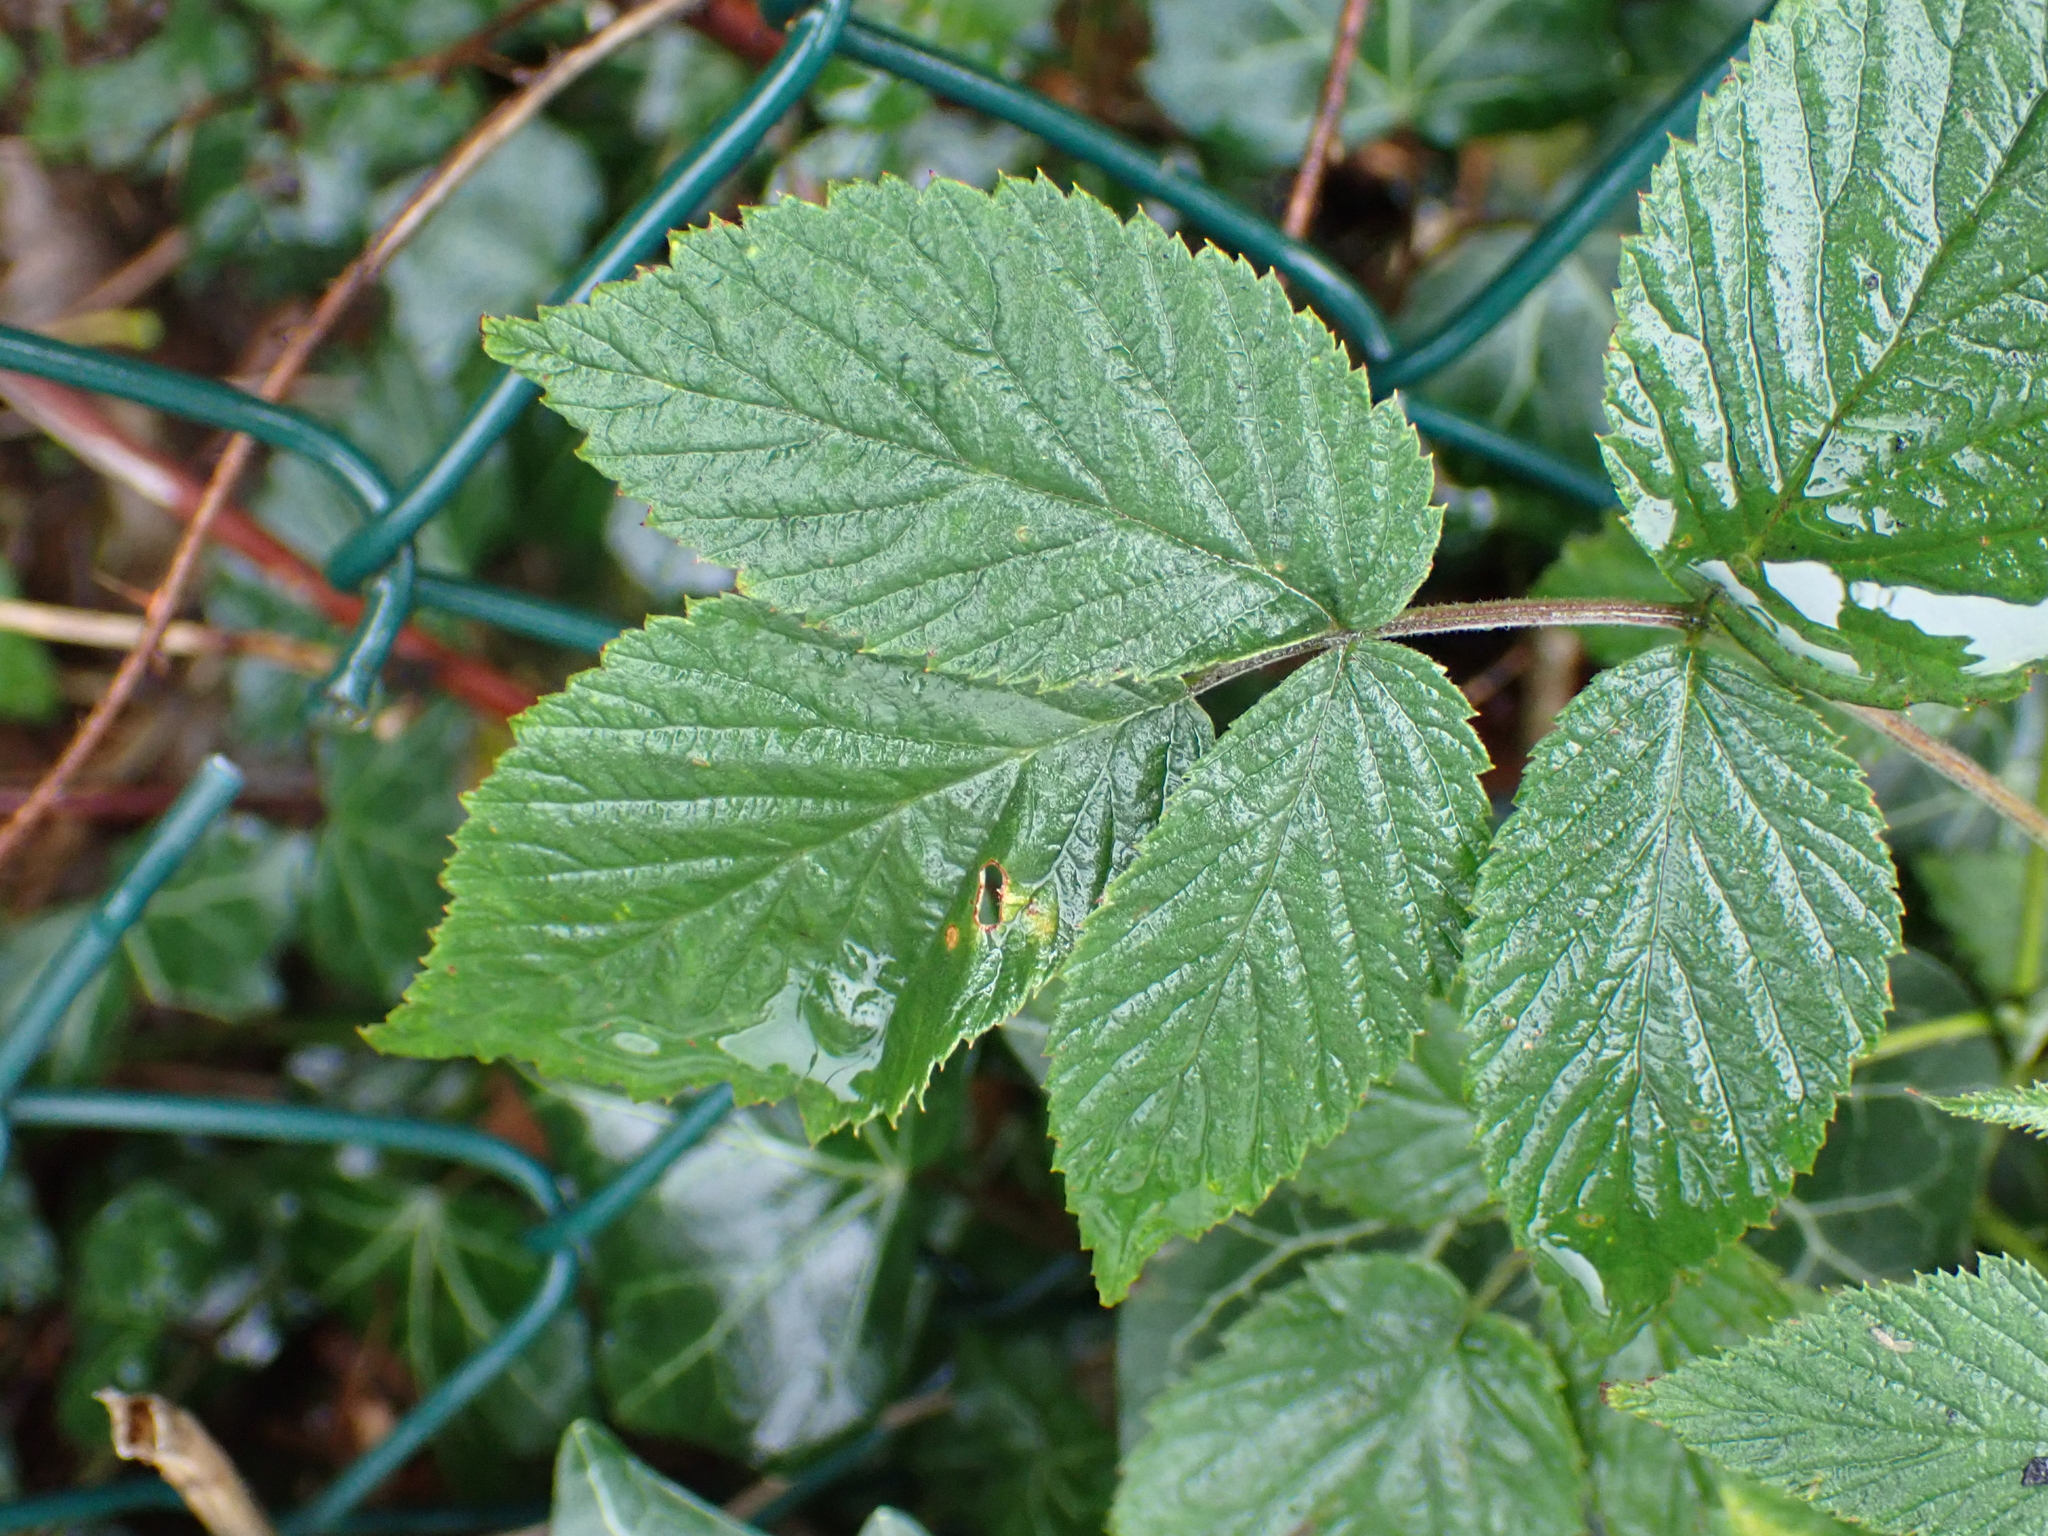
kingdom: Plantae
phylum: Tracheophyta
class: Magnoliopsida
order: Rosales
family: Rosaceae
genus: Rubus
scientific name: Rubus idaeus
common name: Raspberry
